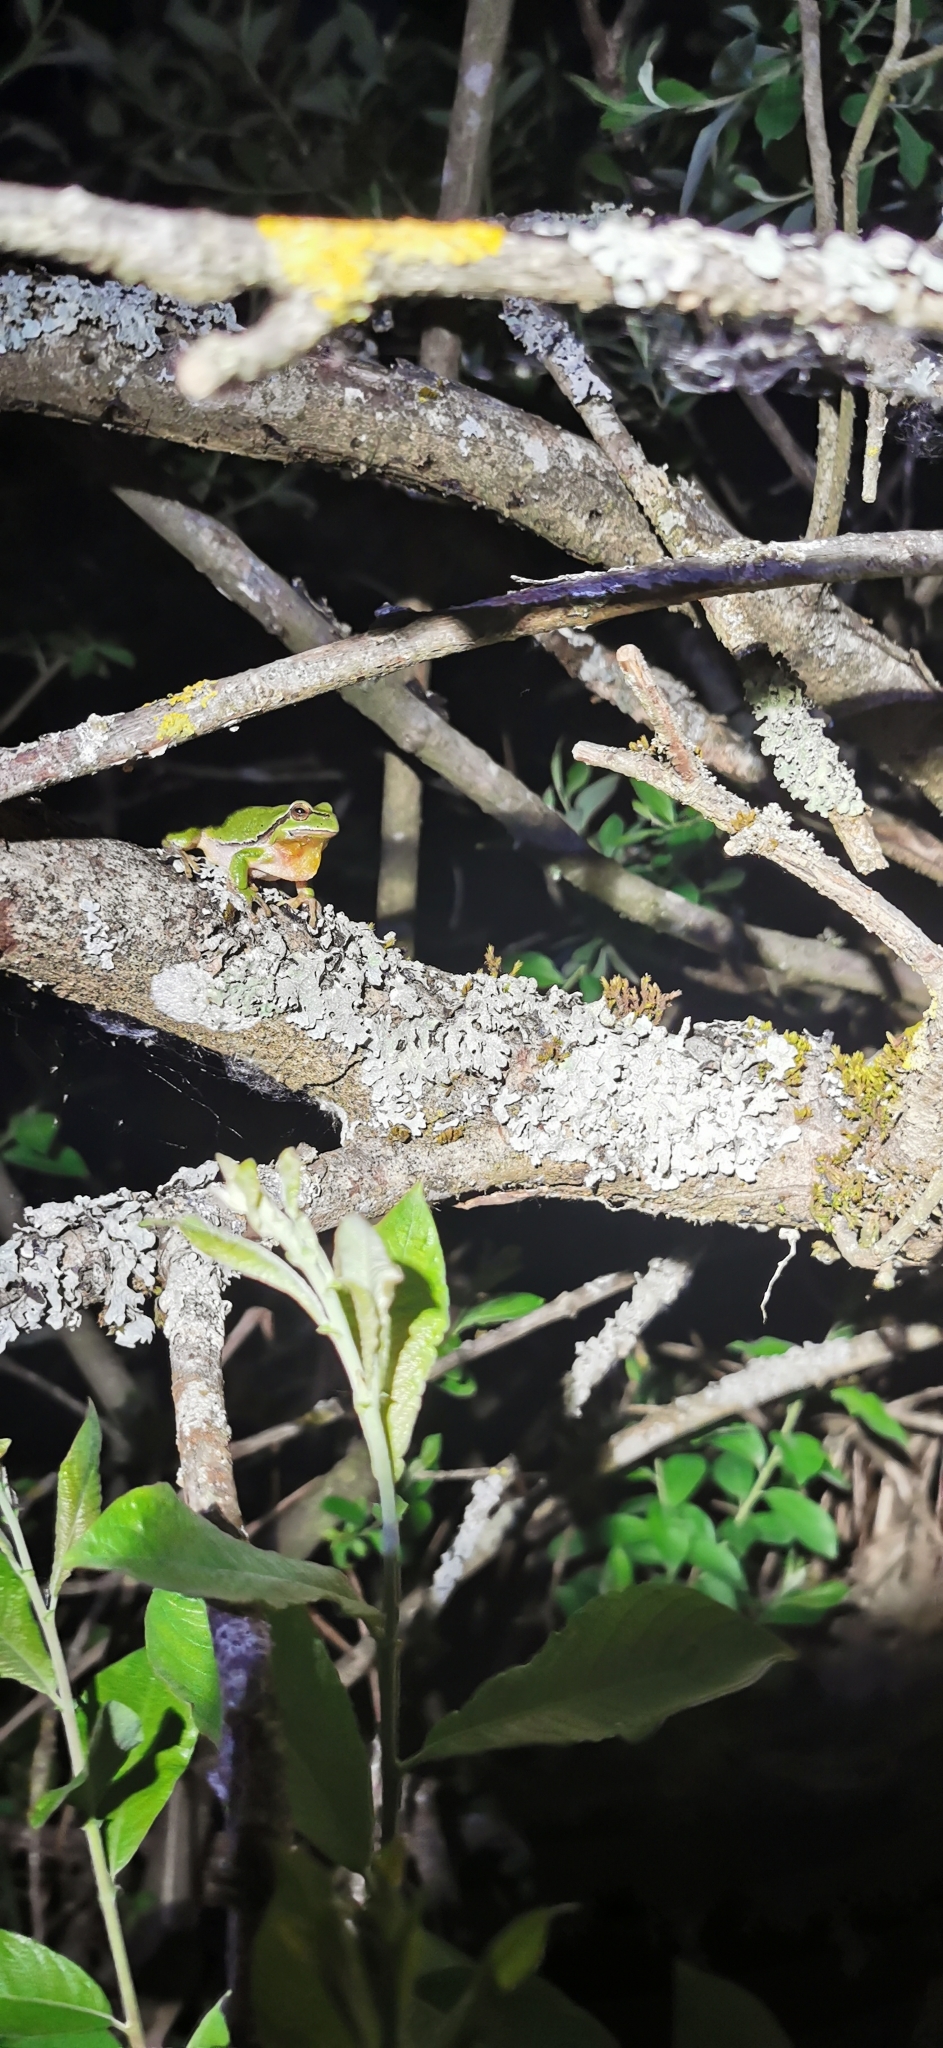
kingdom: Animalia
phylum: Chordata
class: Amphibia
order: Anura
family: Hylidae
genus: Hyla
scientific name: Hyla arborea
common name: Common tree frog
